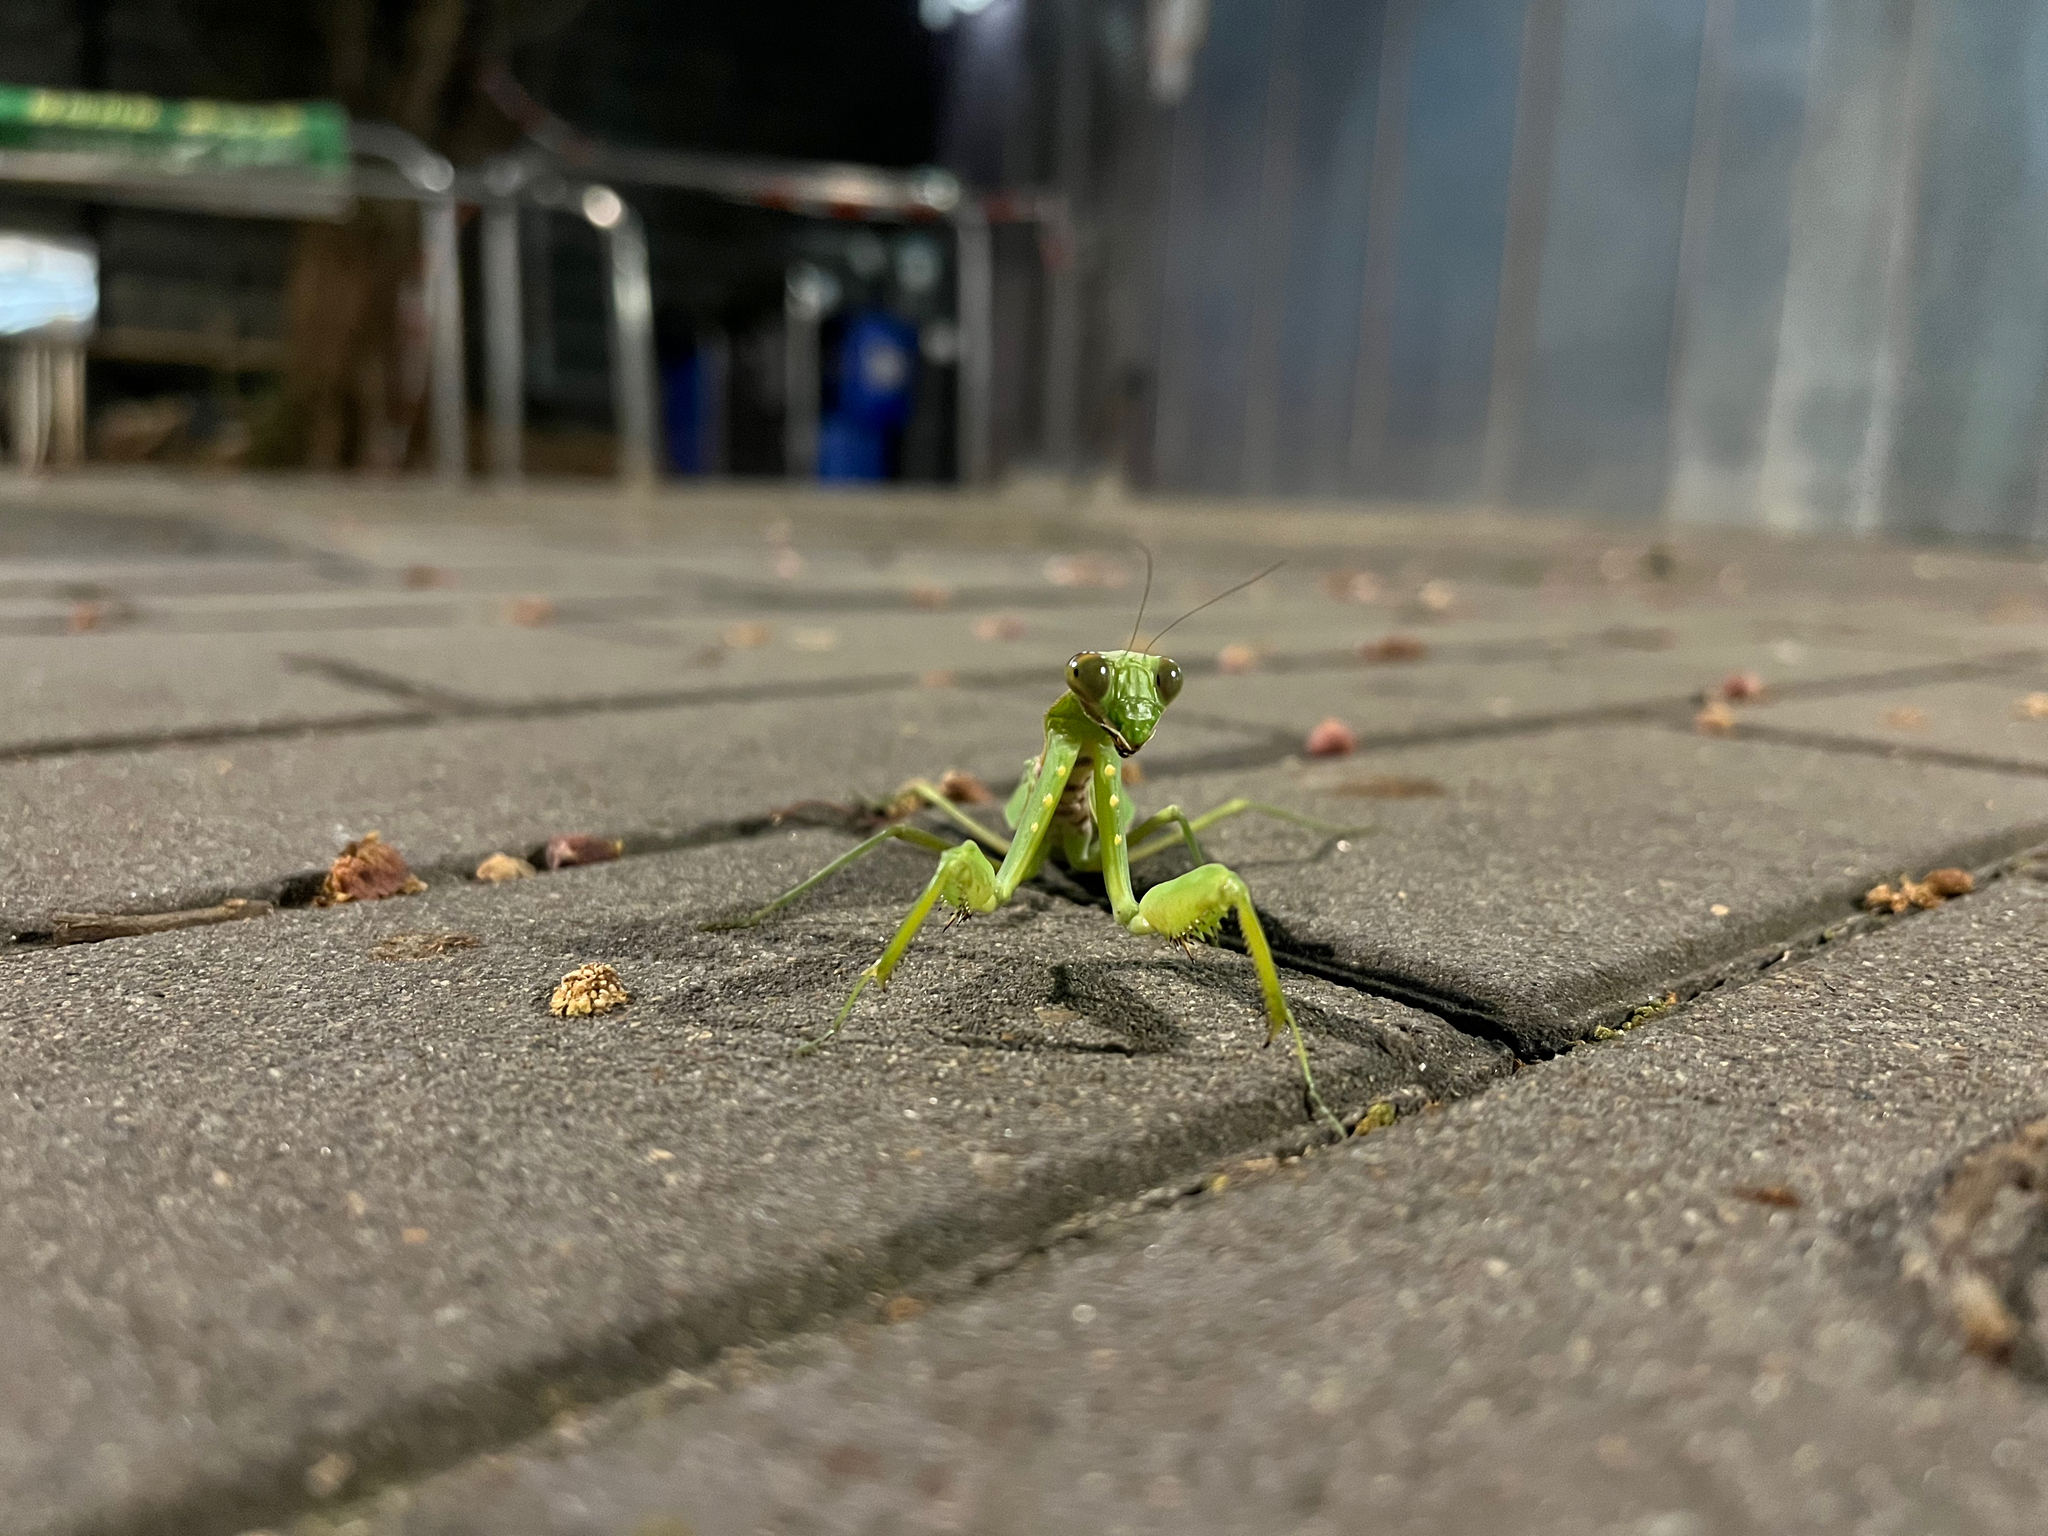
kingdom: Animalia
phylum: Arthropoda
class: Insecta
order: Mantodea
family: Mantidae
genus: Hierodula
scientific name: Hierodula patellifera
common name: Asian mantis
